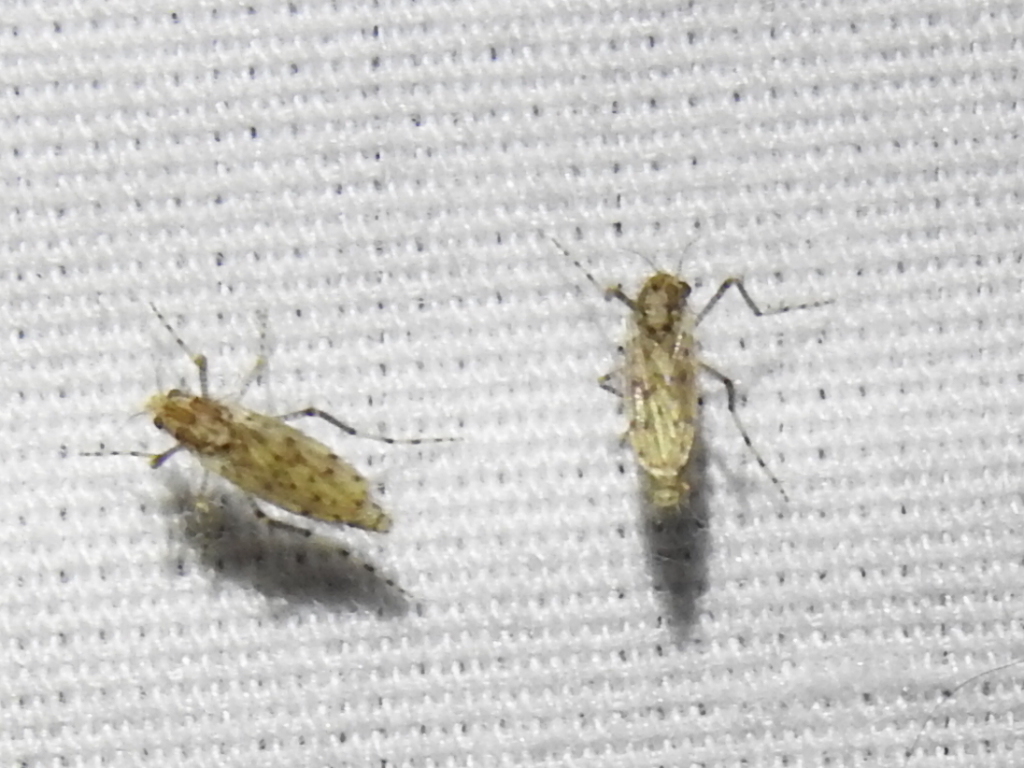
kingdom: Animalia
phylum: Arthropoda
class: Insecta
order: Diptera
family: Chaoboridae
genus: Chaoborus
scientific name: Chaoborus punctipennis
